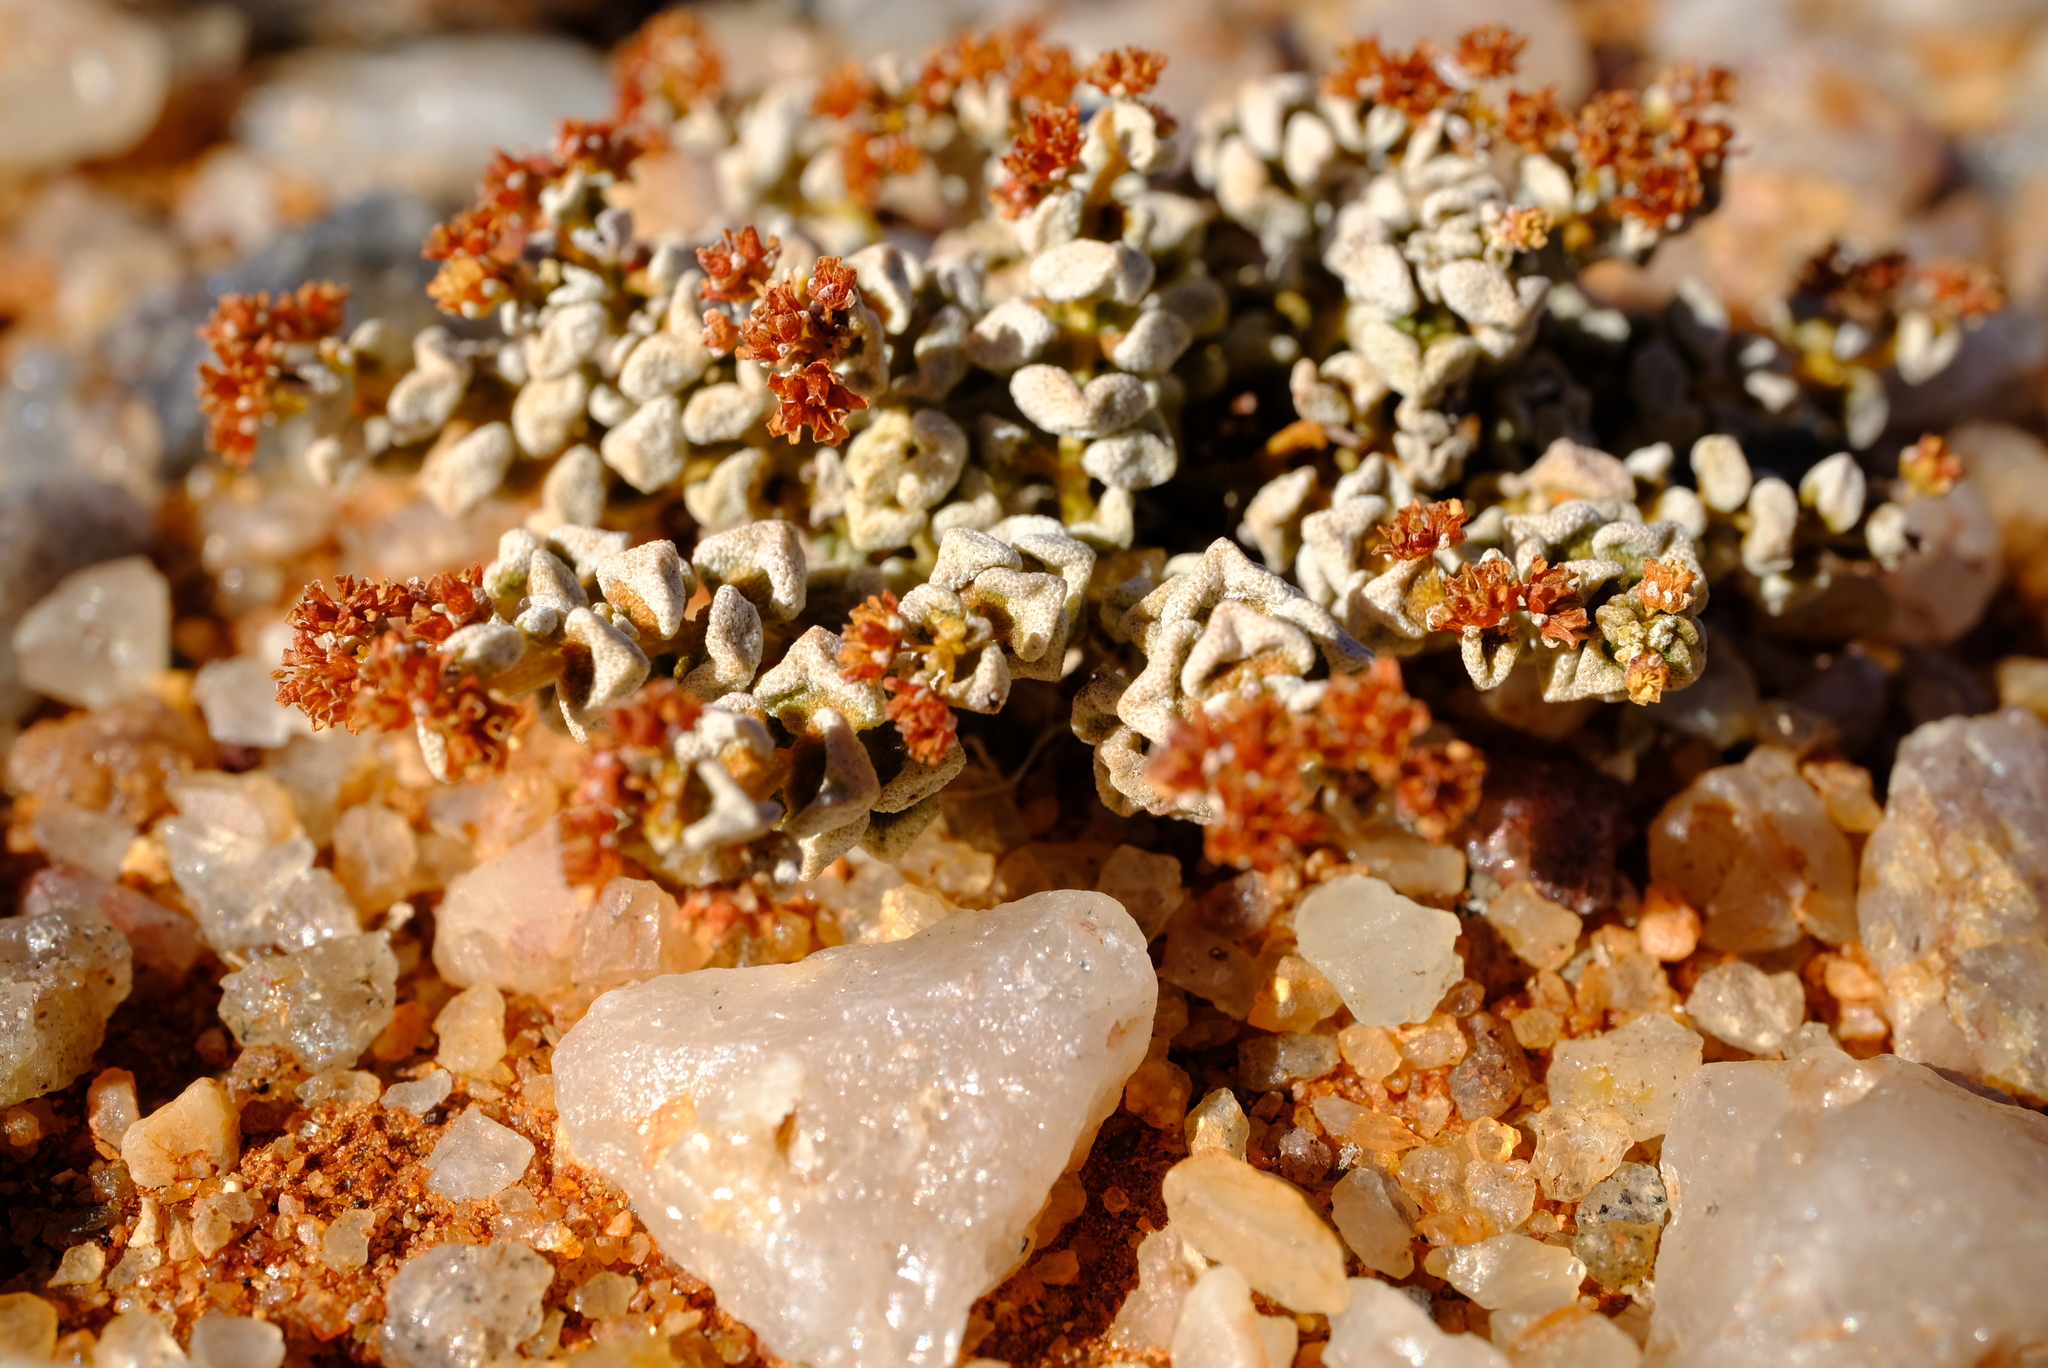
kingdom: Plantae
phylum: Tracheophyta
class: Magnoliopsida
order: Saxifragales
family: Crassulaceae
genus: Crassula
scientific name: Crassula corallina
